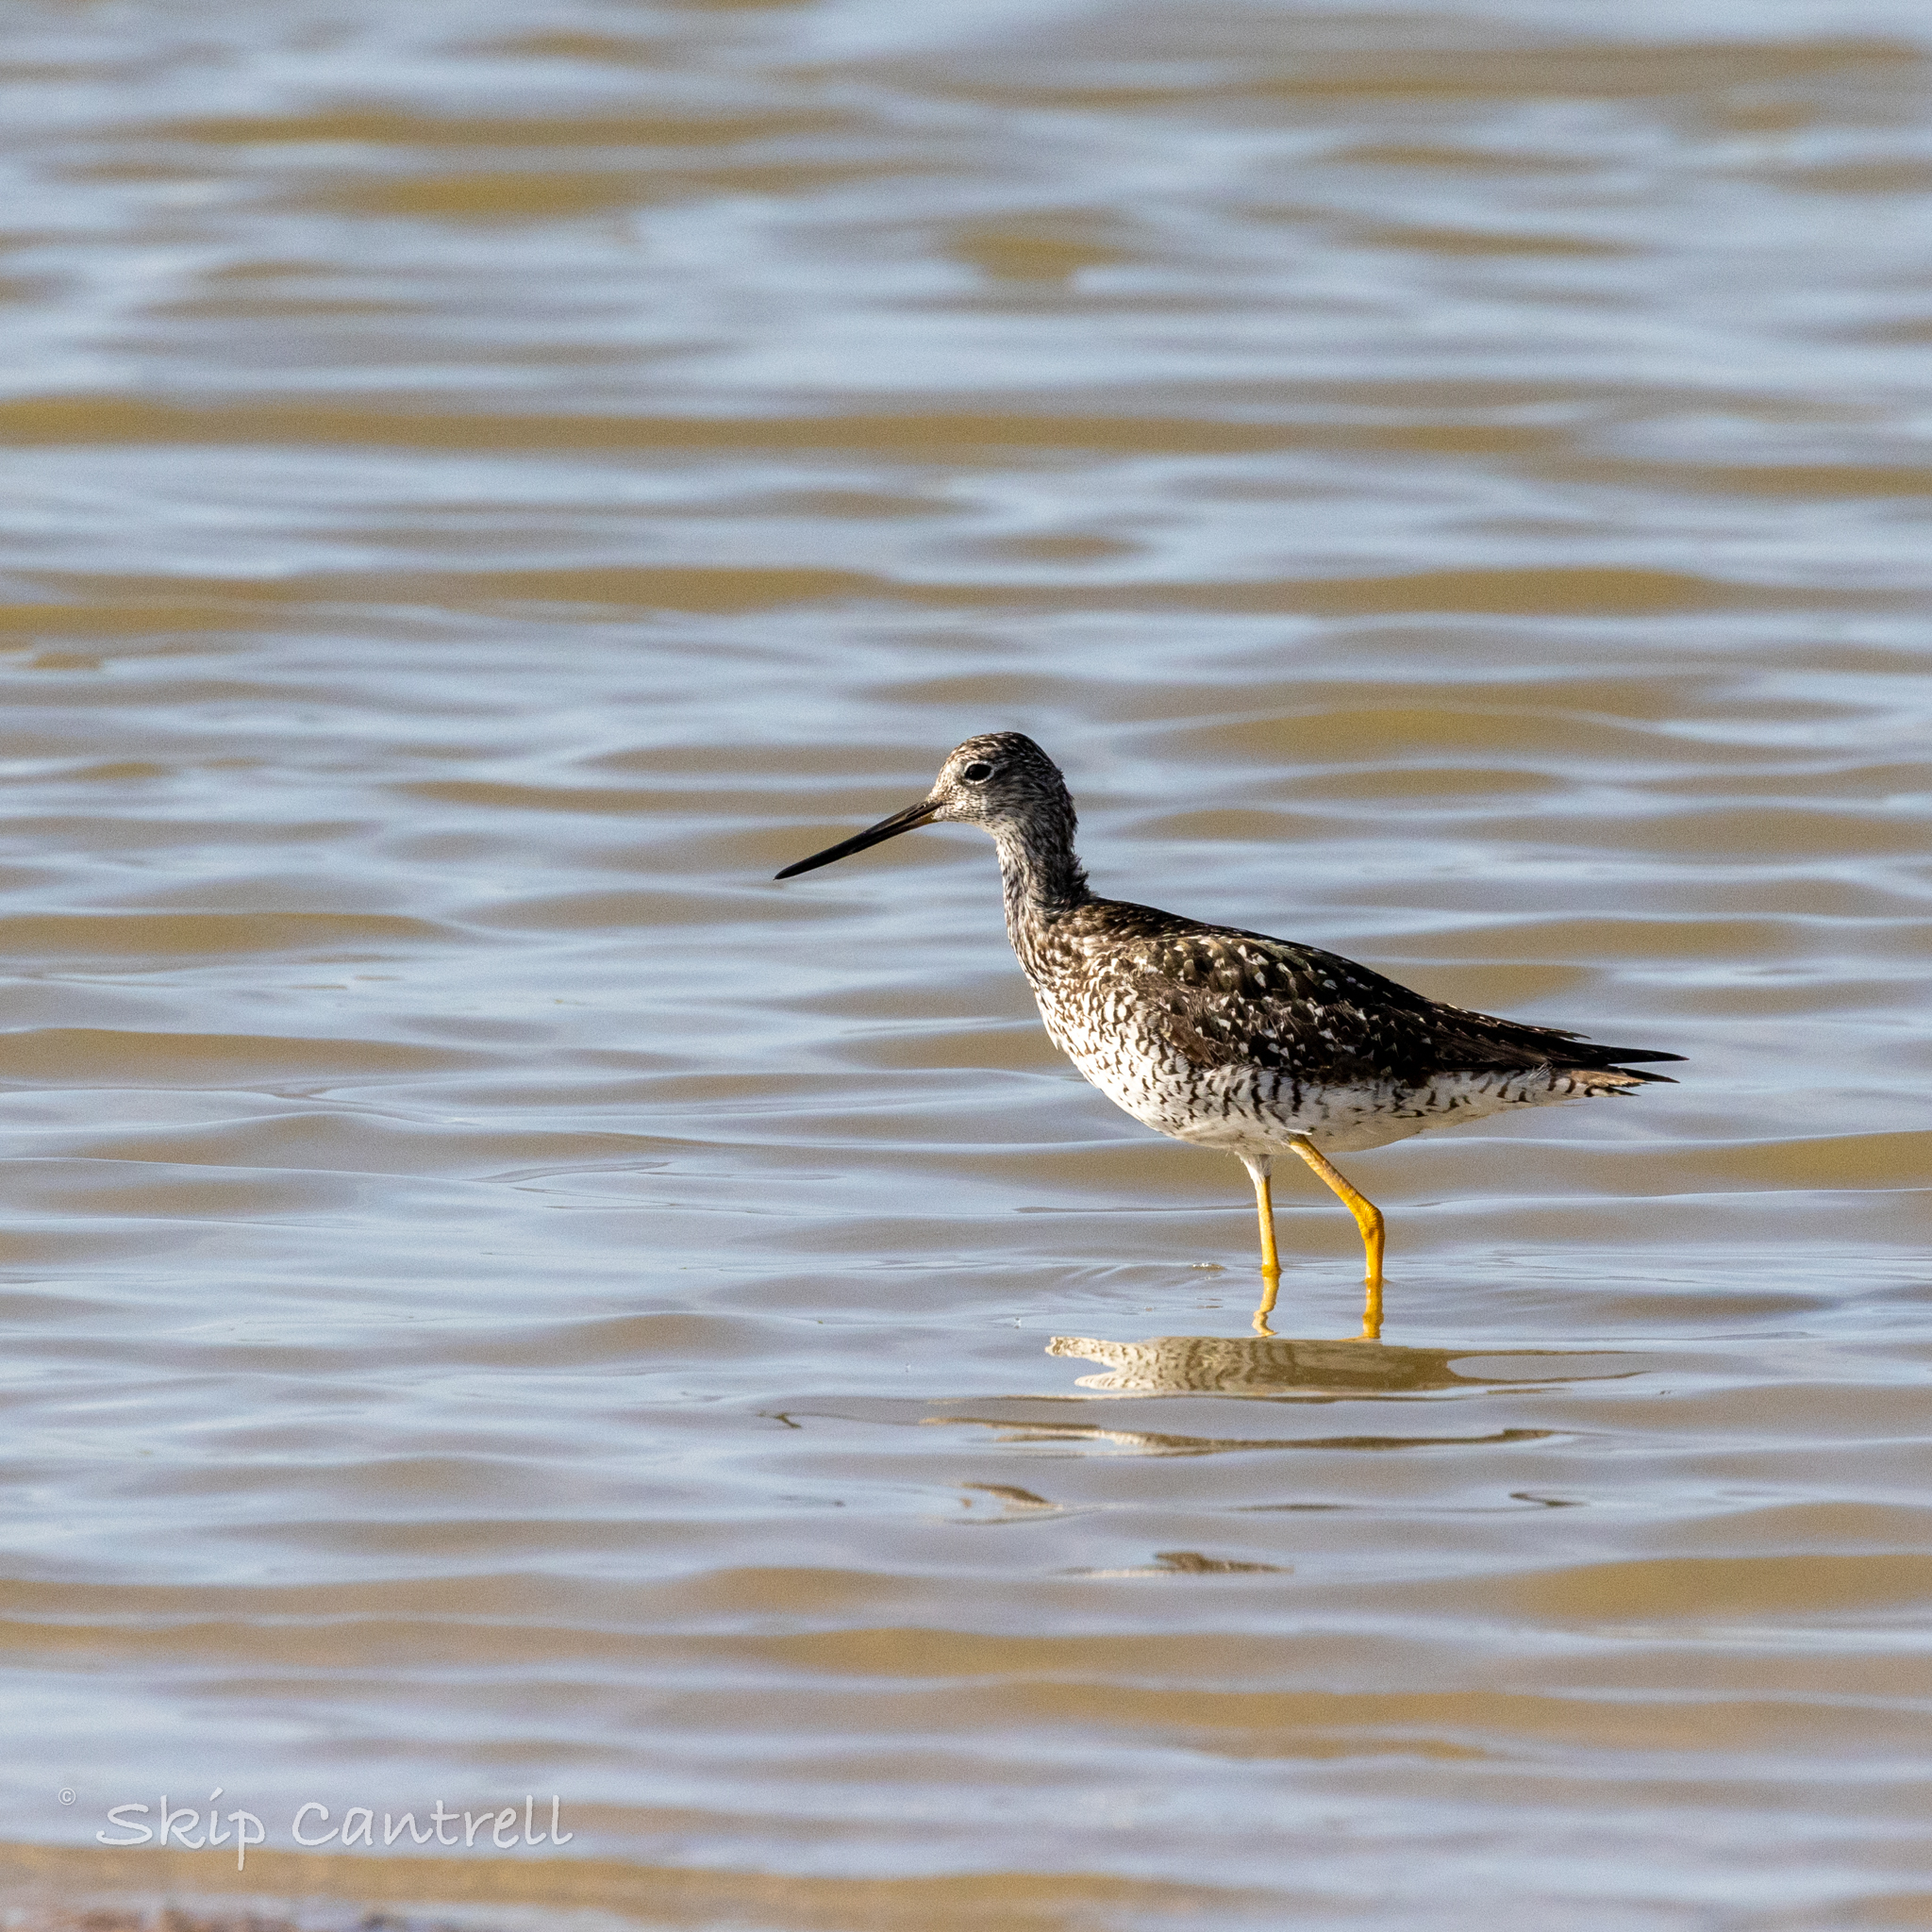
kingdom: Animalia
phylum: Chordata
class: Aves
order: Charadriiformes
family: Scolopacidae
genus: Tringa
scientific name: Tringa melanoleuca
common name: Greater yellowlegs
